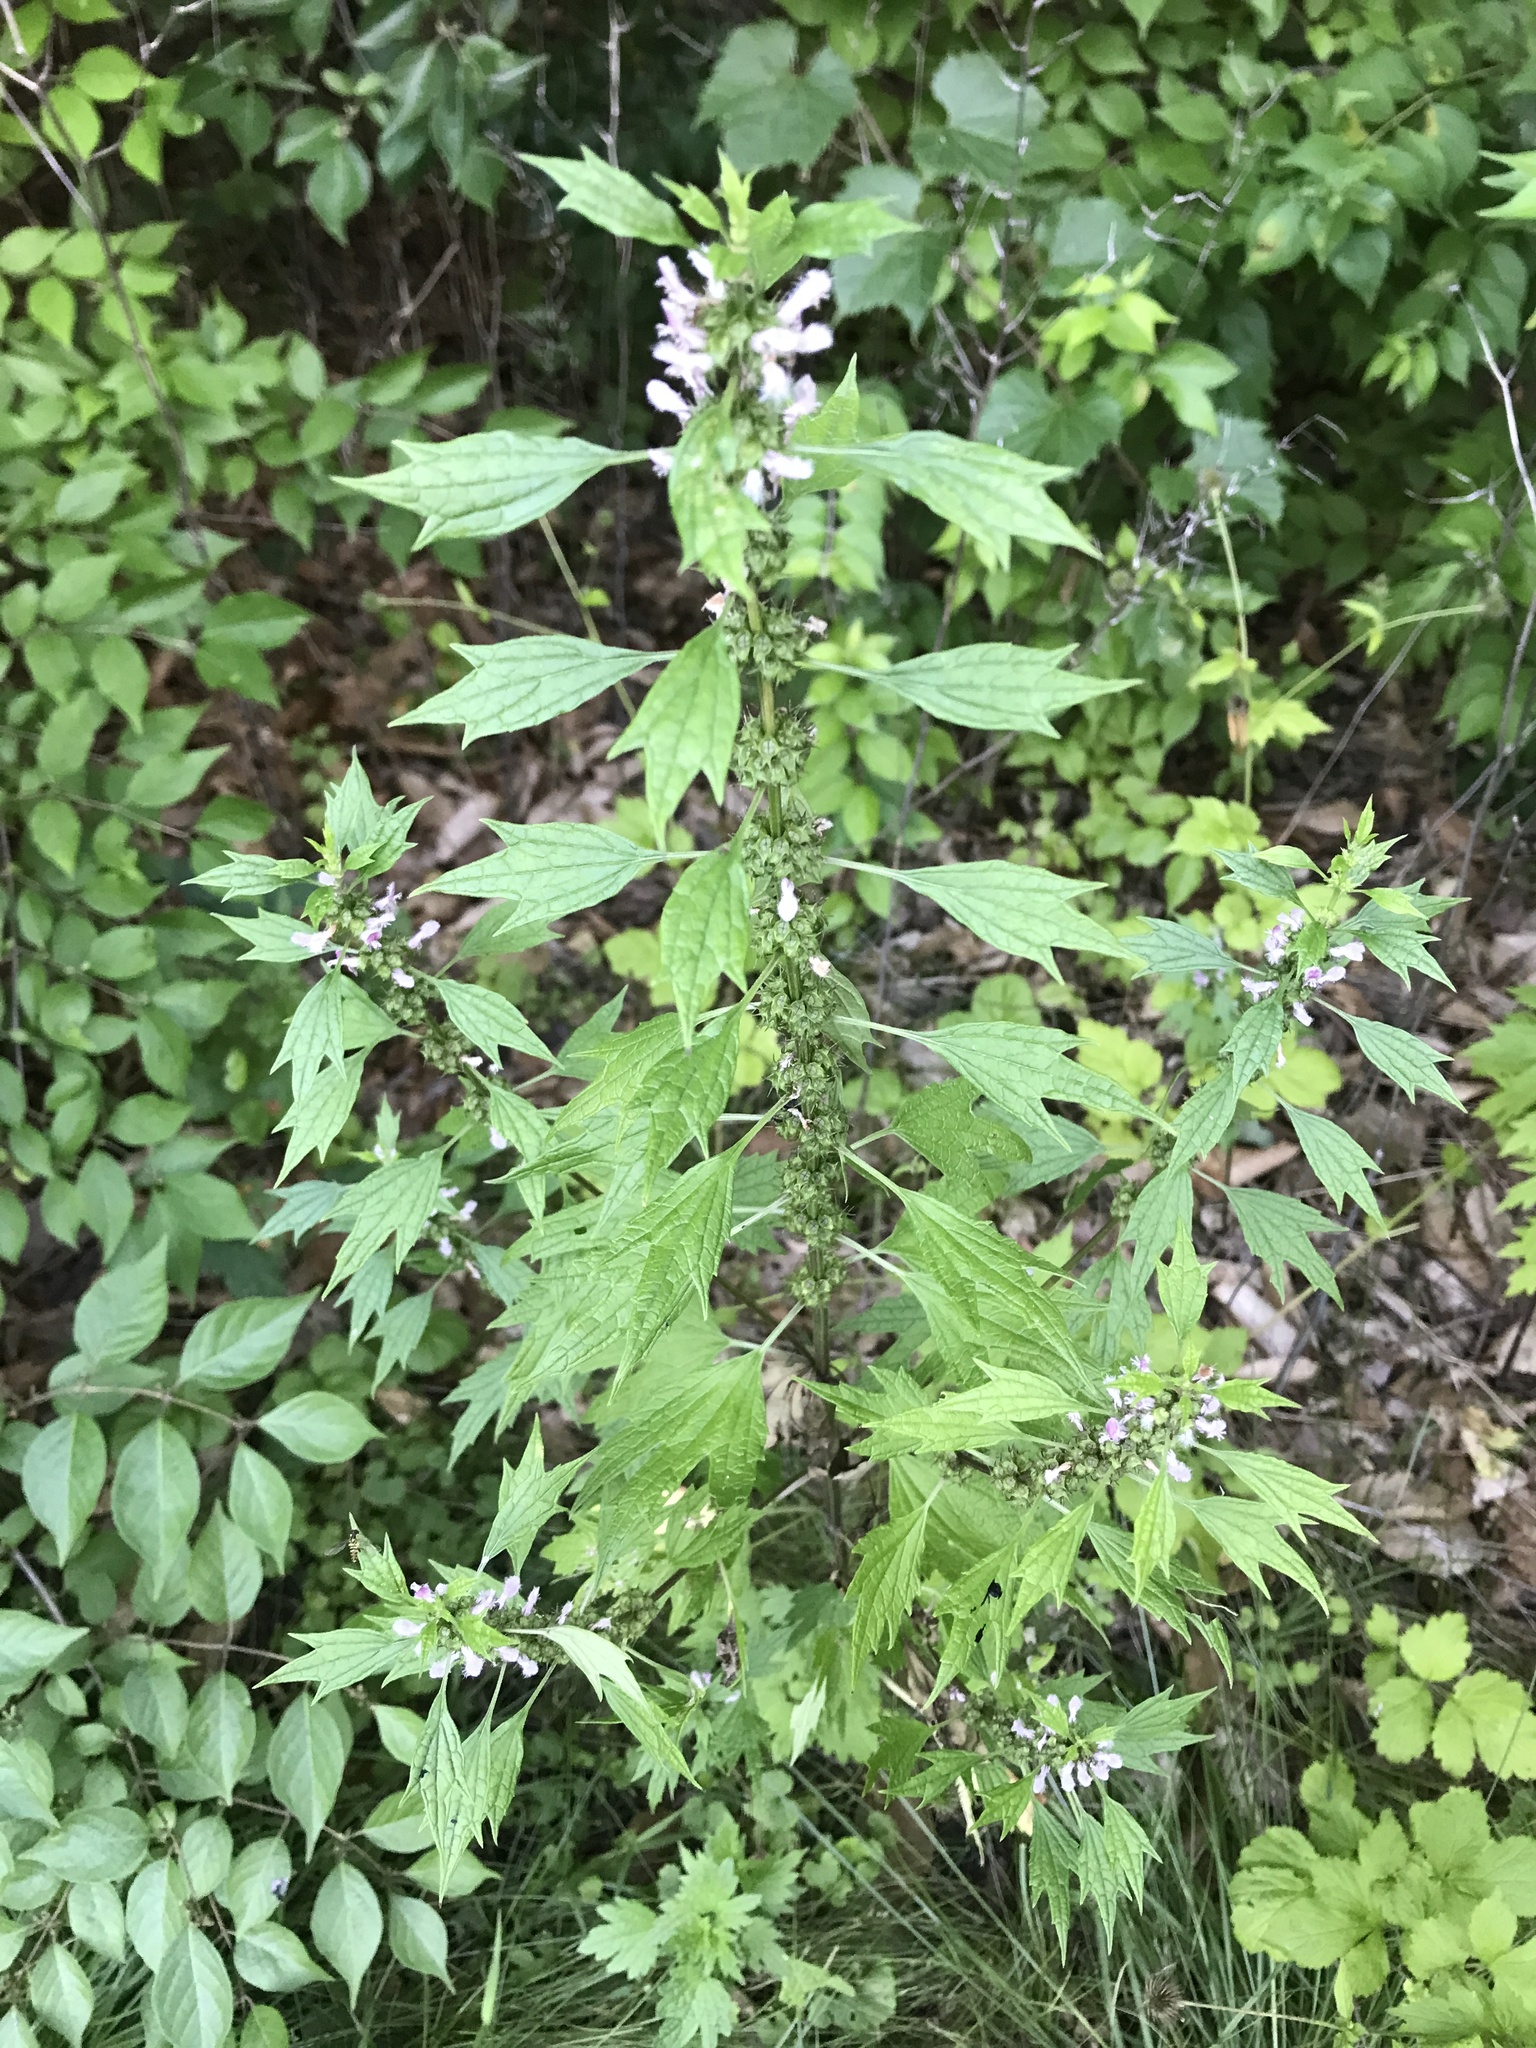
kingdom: Plantae
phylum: Tracheophyta
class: Magnoliopsida
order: Lamiales
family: Lamiaceae
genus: Leonurus
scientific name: Leonurus cardiaca
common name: Motherwort
